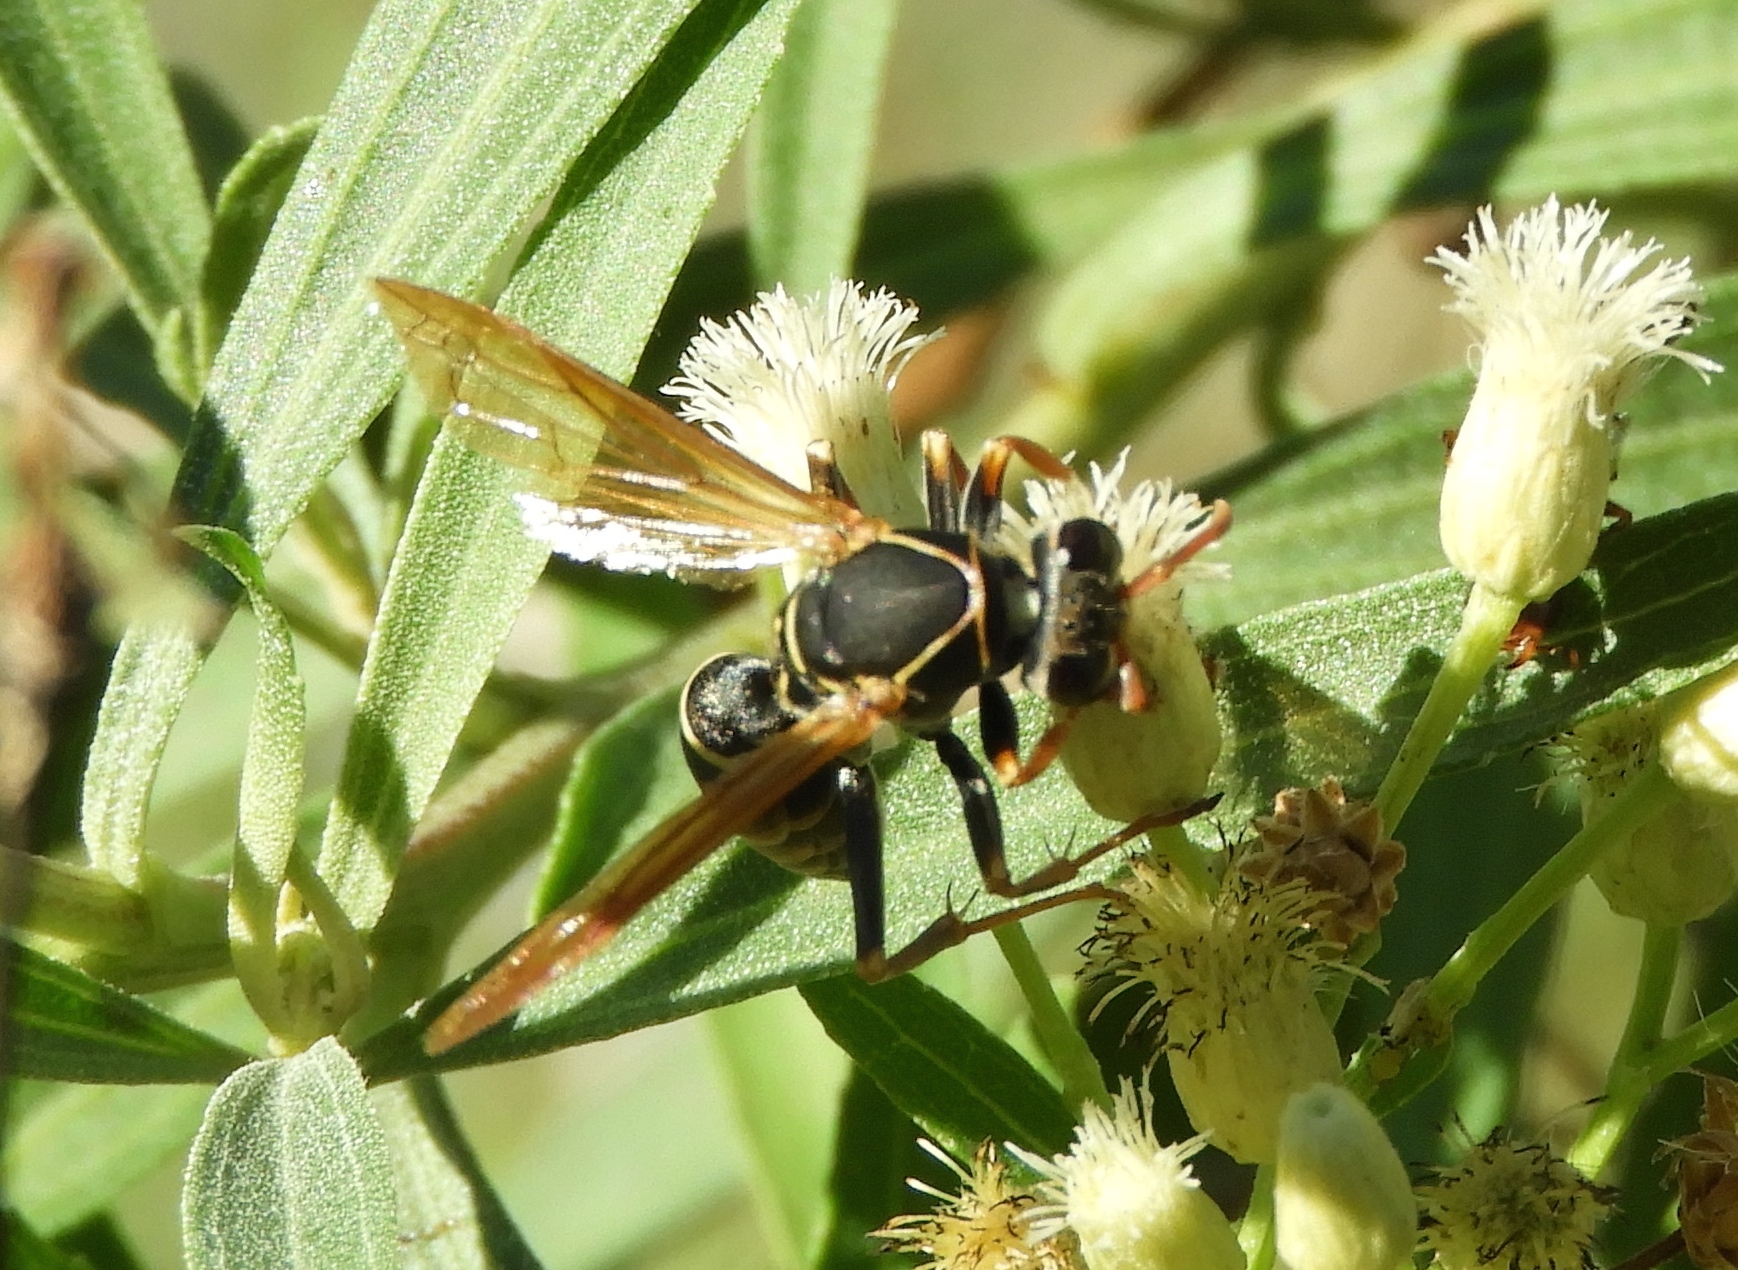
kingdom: Animalia
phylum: Arthropoda
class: Insecta
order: Hymenoptera
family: Eumenidae
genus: Polistes
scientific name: Polistes boharti
